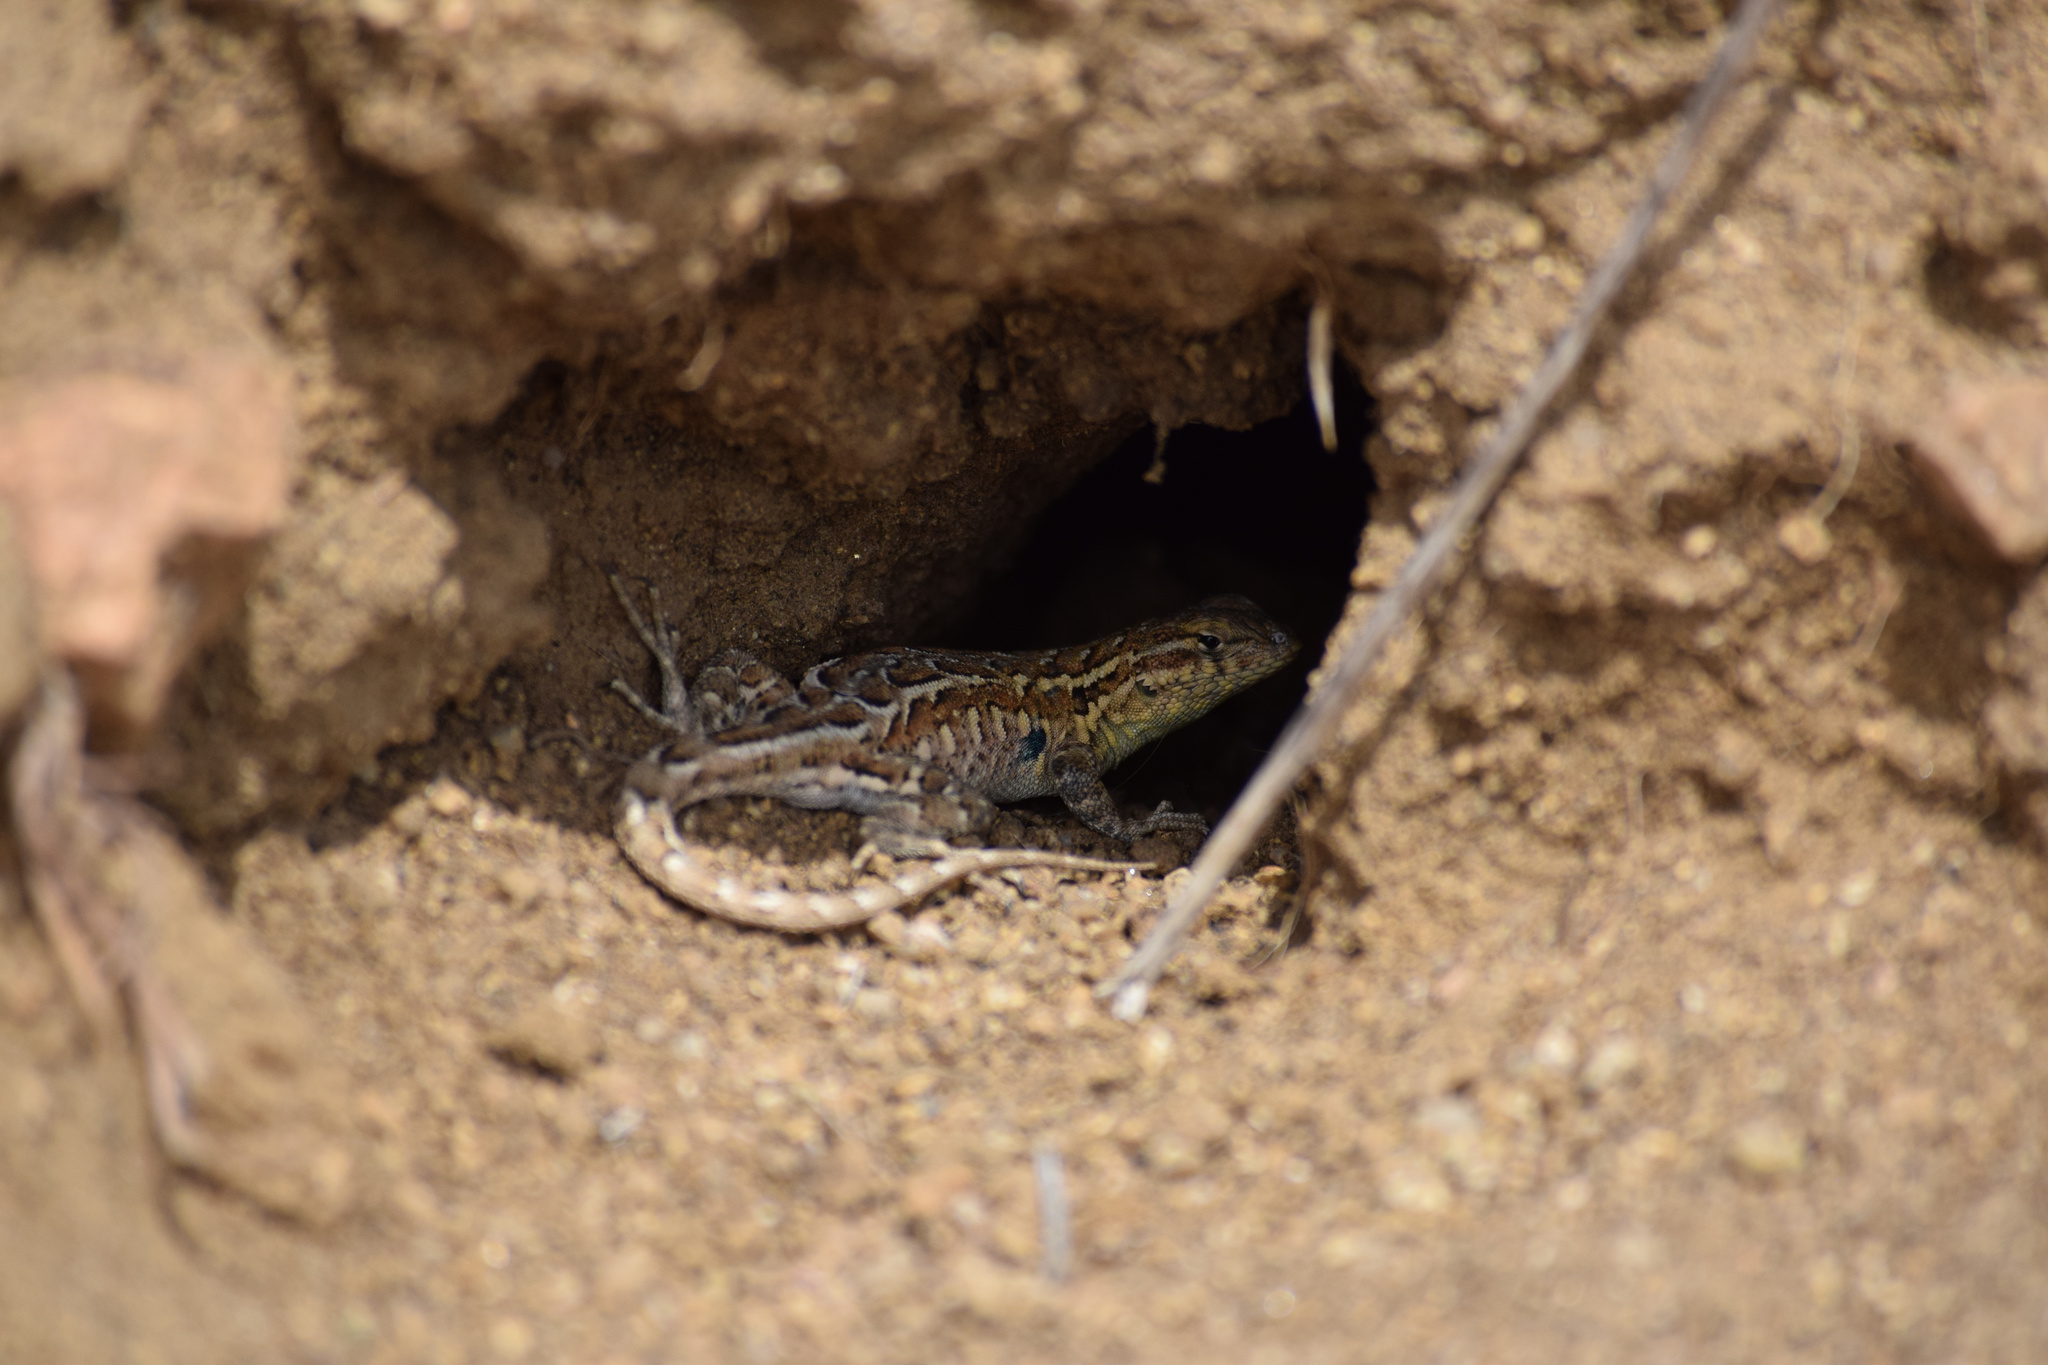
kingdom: Animalia
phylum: Chordata
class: Squamata
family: Phrynosomatidae
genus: Uta
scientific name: Uta stansburiana
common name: Side-blotched lizard
